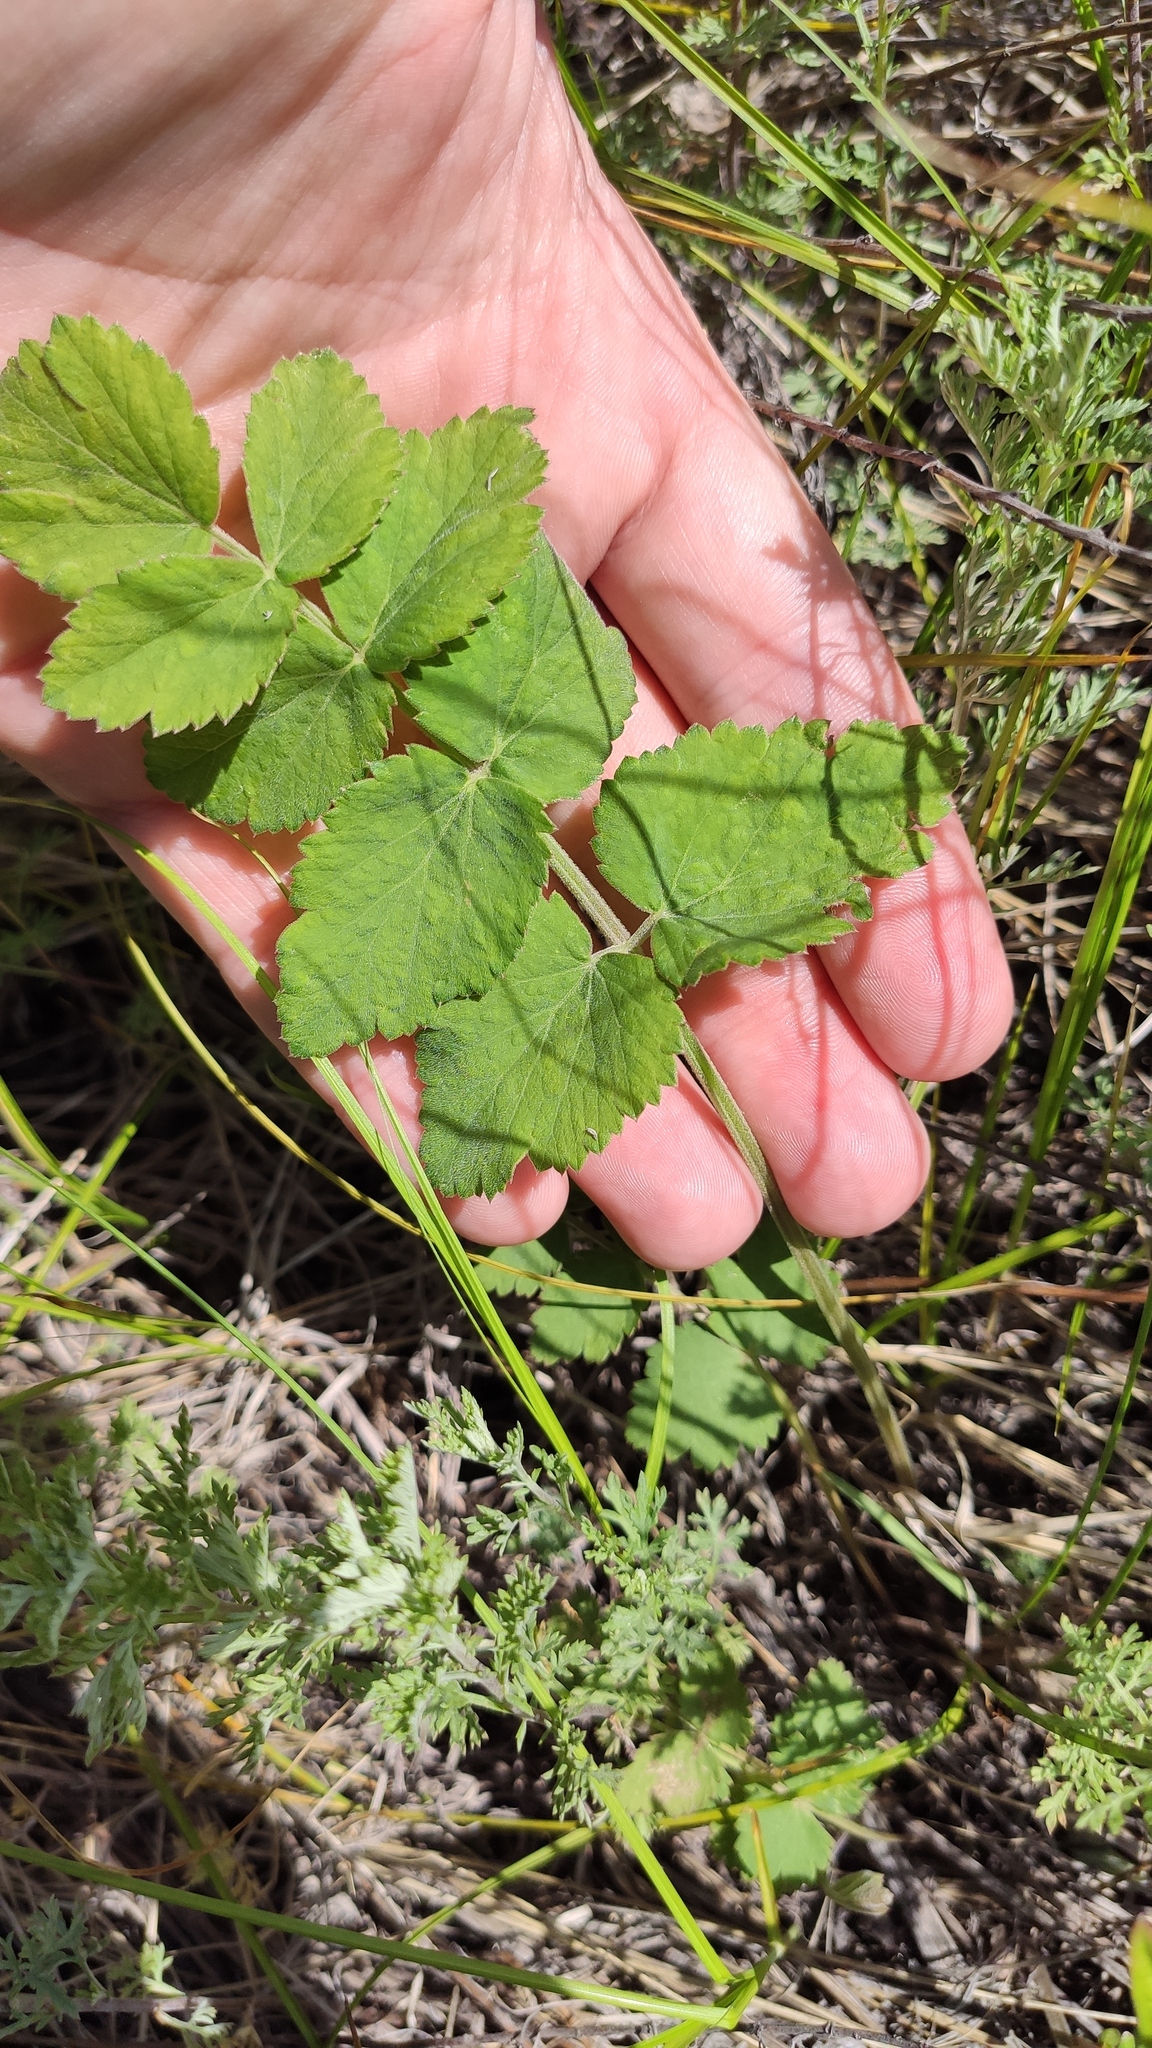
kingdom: Plantae
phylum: Tracheophyta
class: Magnoliopsida
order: Apiales
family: Apiaceae
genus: Pimpinella
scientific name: Pimpinella saxifraga
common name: Burnet-saxifrage
